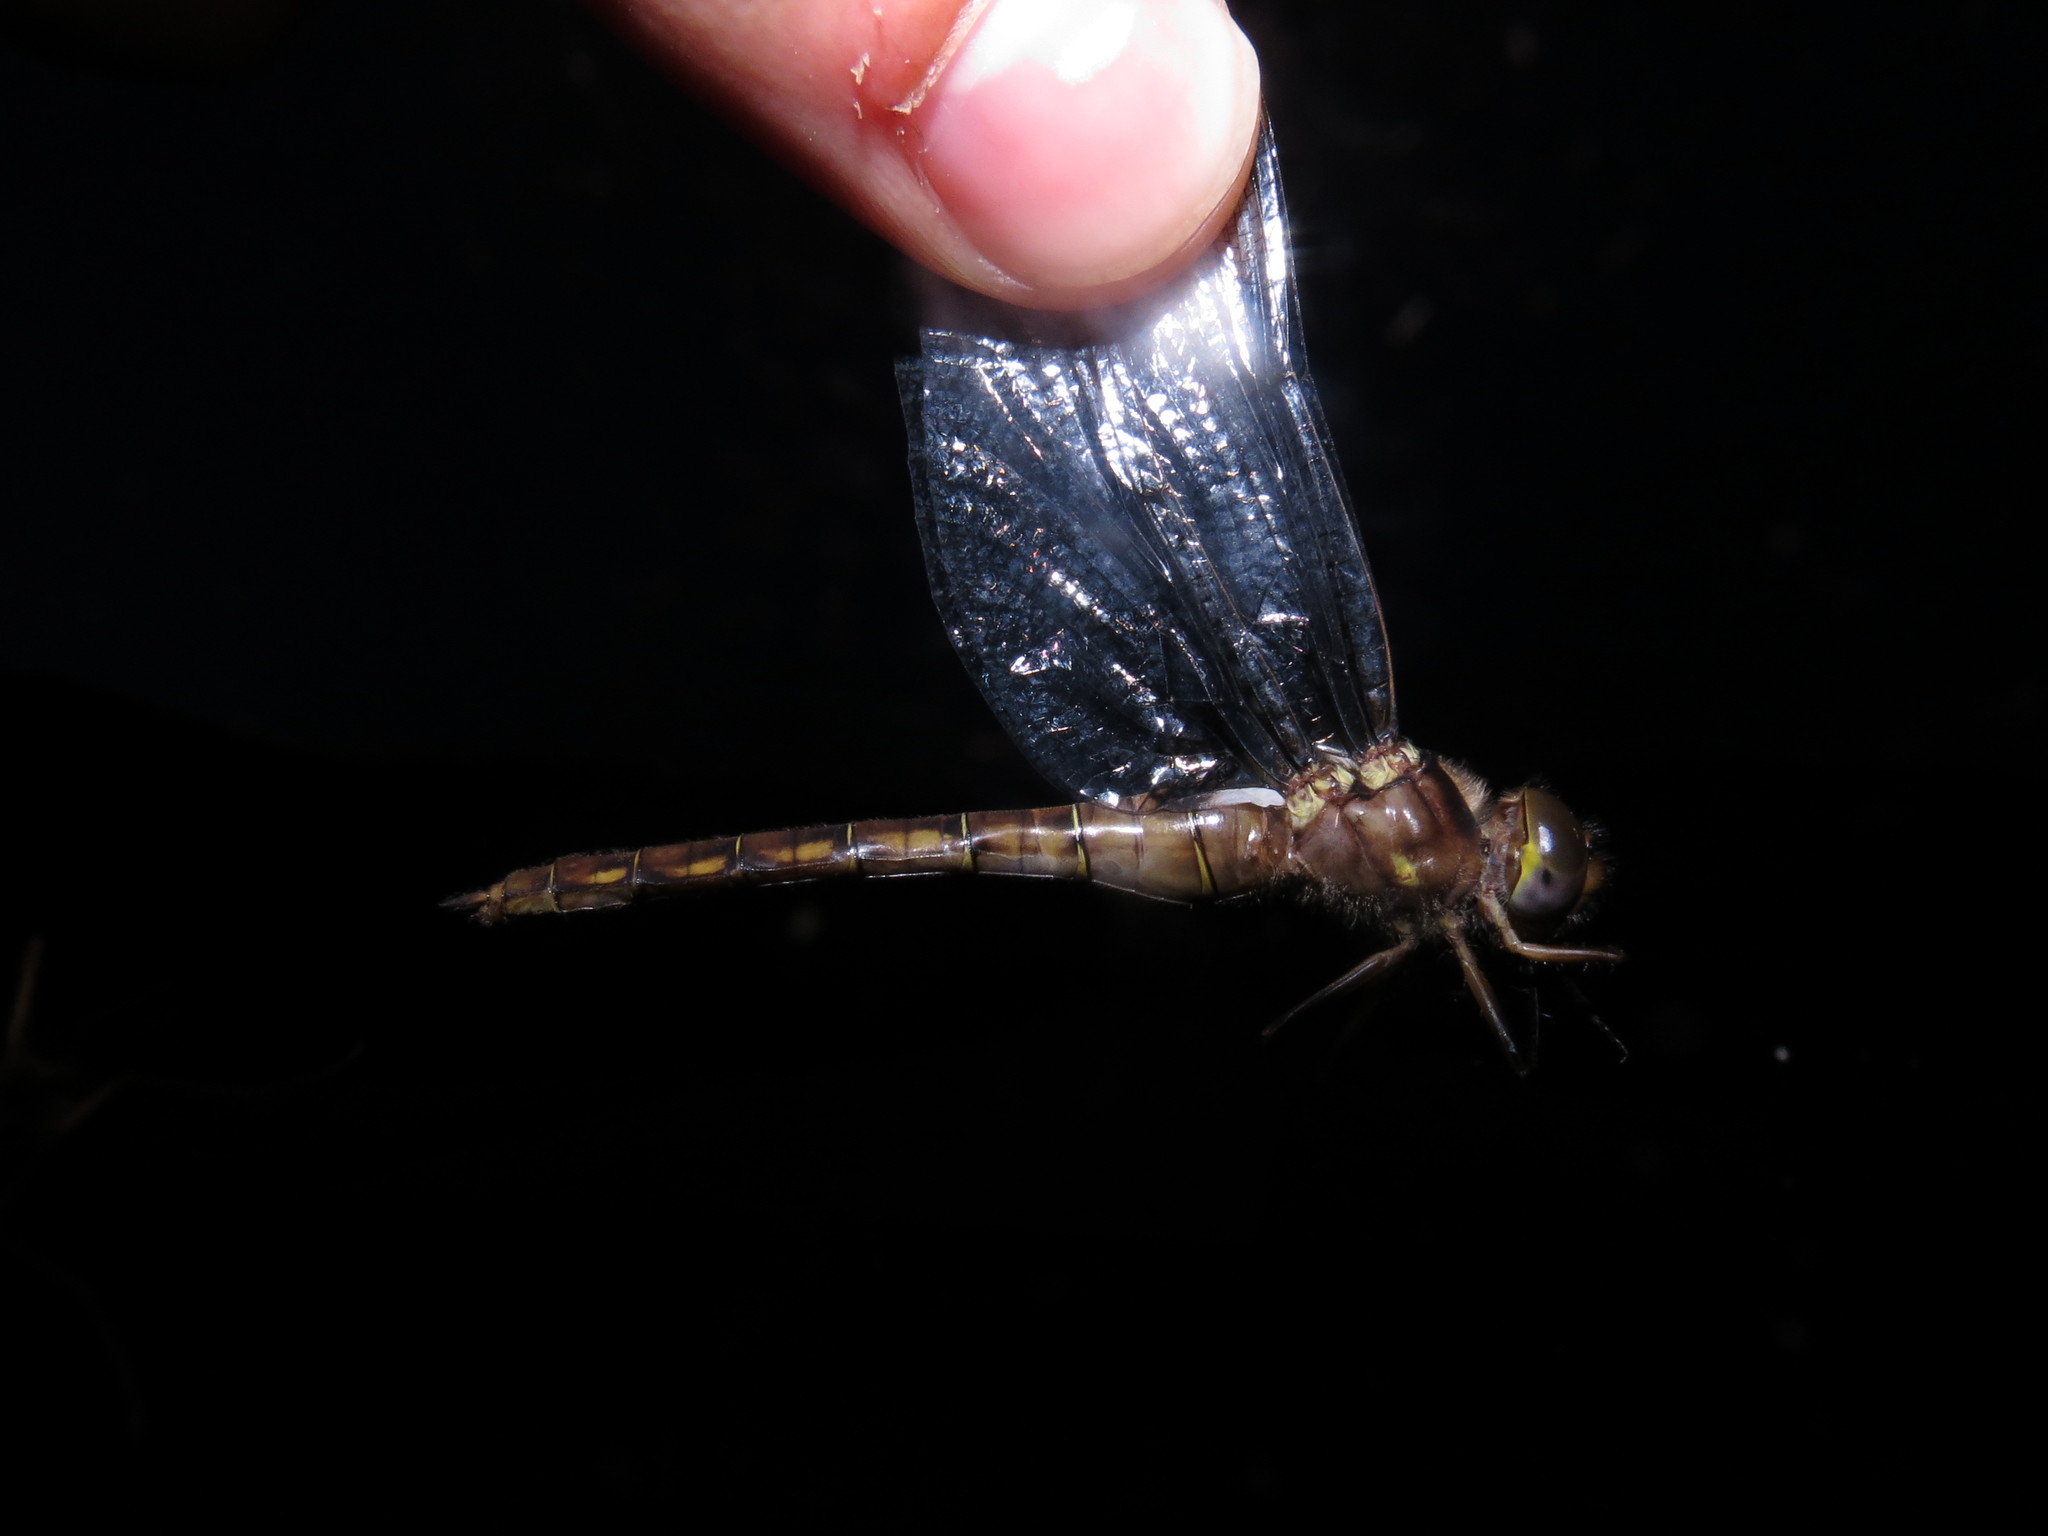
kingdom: Animalia
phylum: Arthropoda
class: Insecta
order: Odonata
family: Corduliidae
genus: Neurocordulia
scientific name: Neurocordulia yamaskanensis
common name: Stygian shadowdragon
